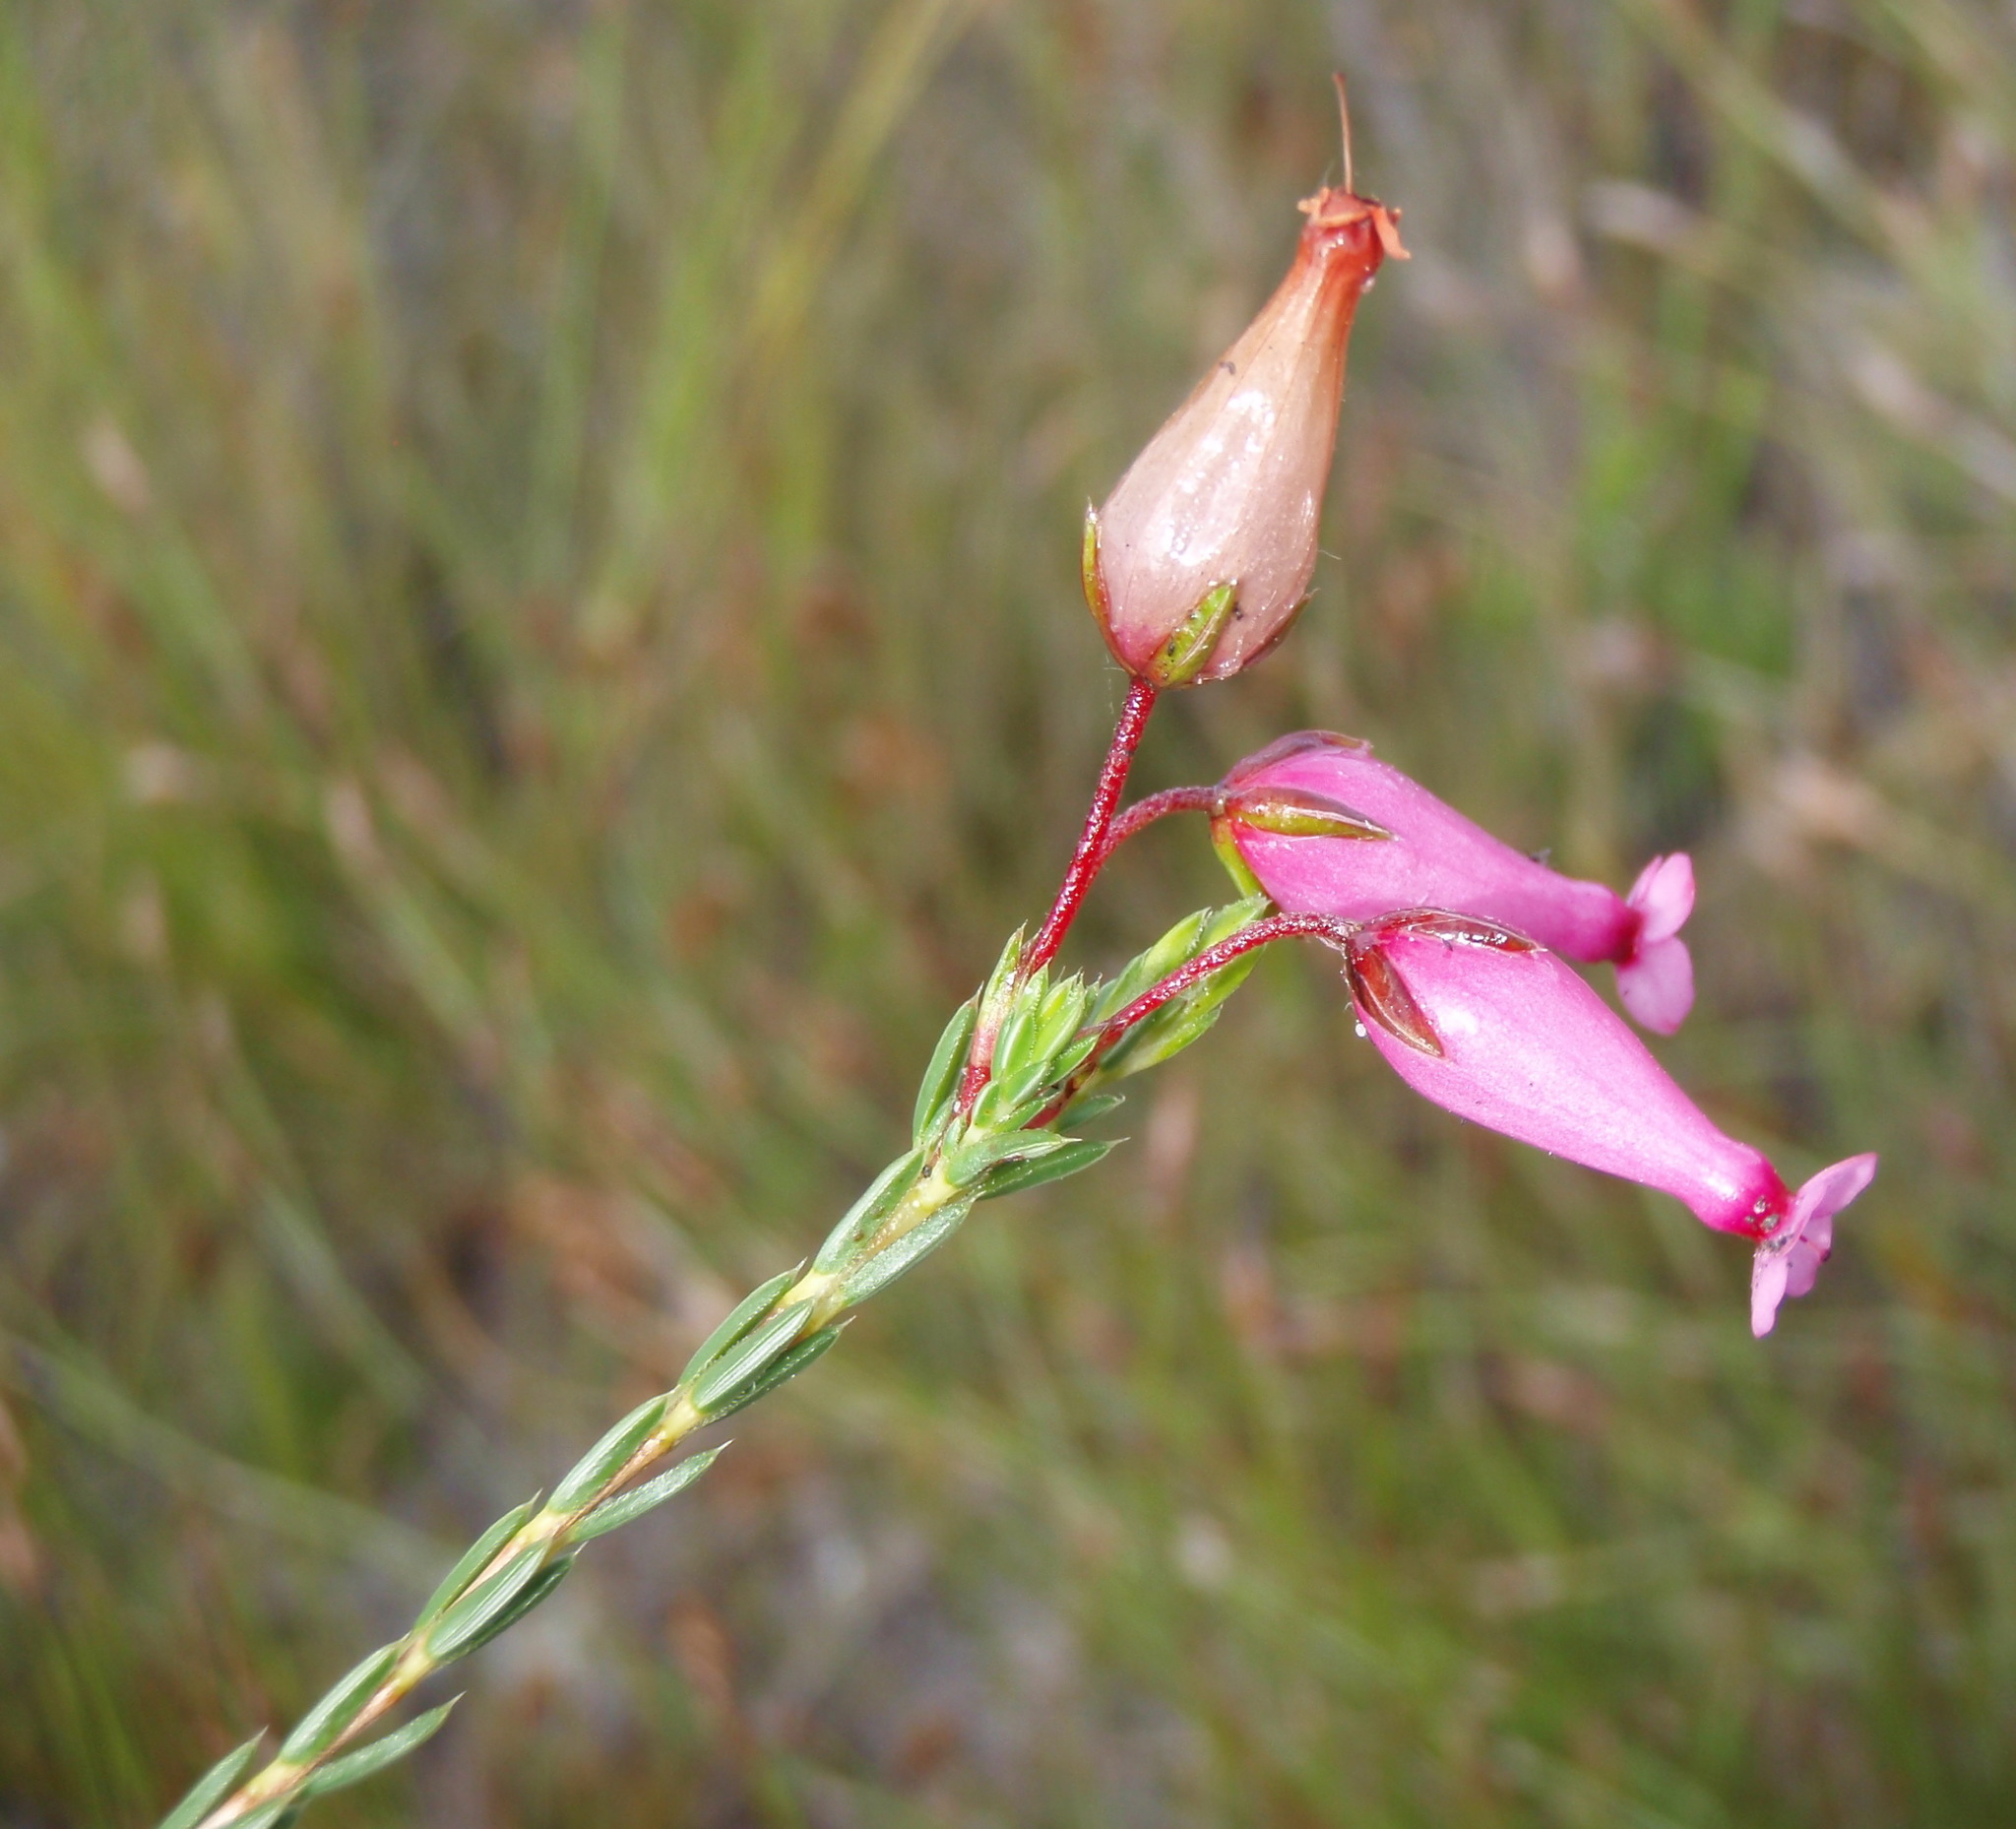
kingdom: Plantae
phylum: Tracheophyta
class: Magnoliopsida
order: Ericales
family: Ericaceae
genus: Erica
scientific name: Erica irbyana
